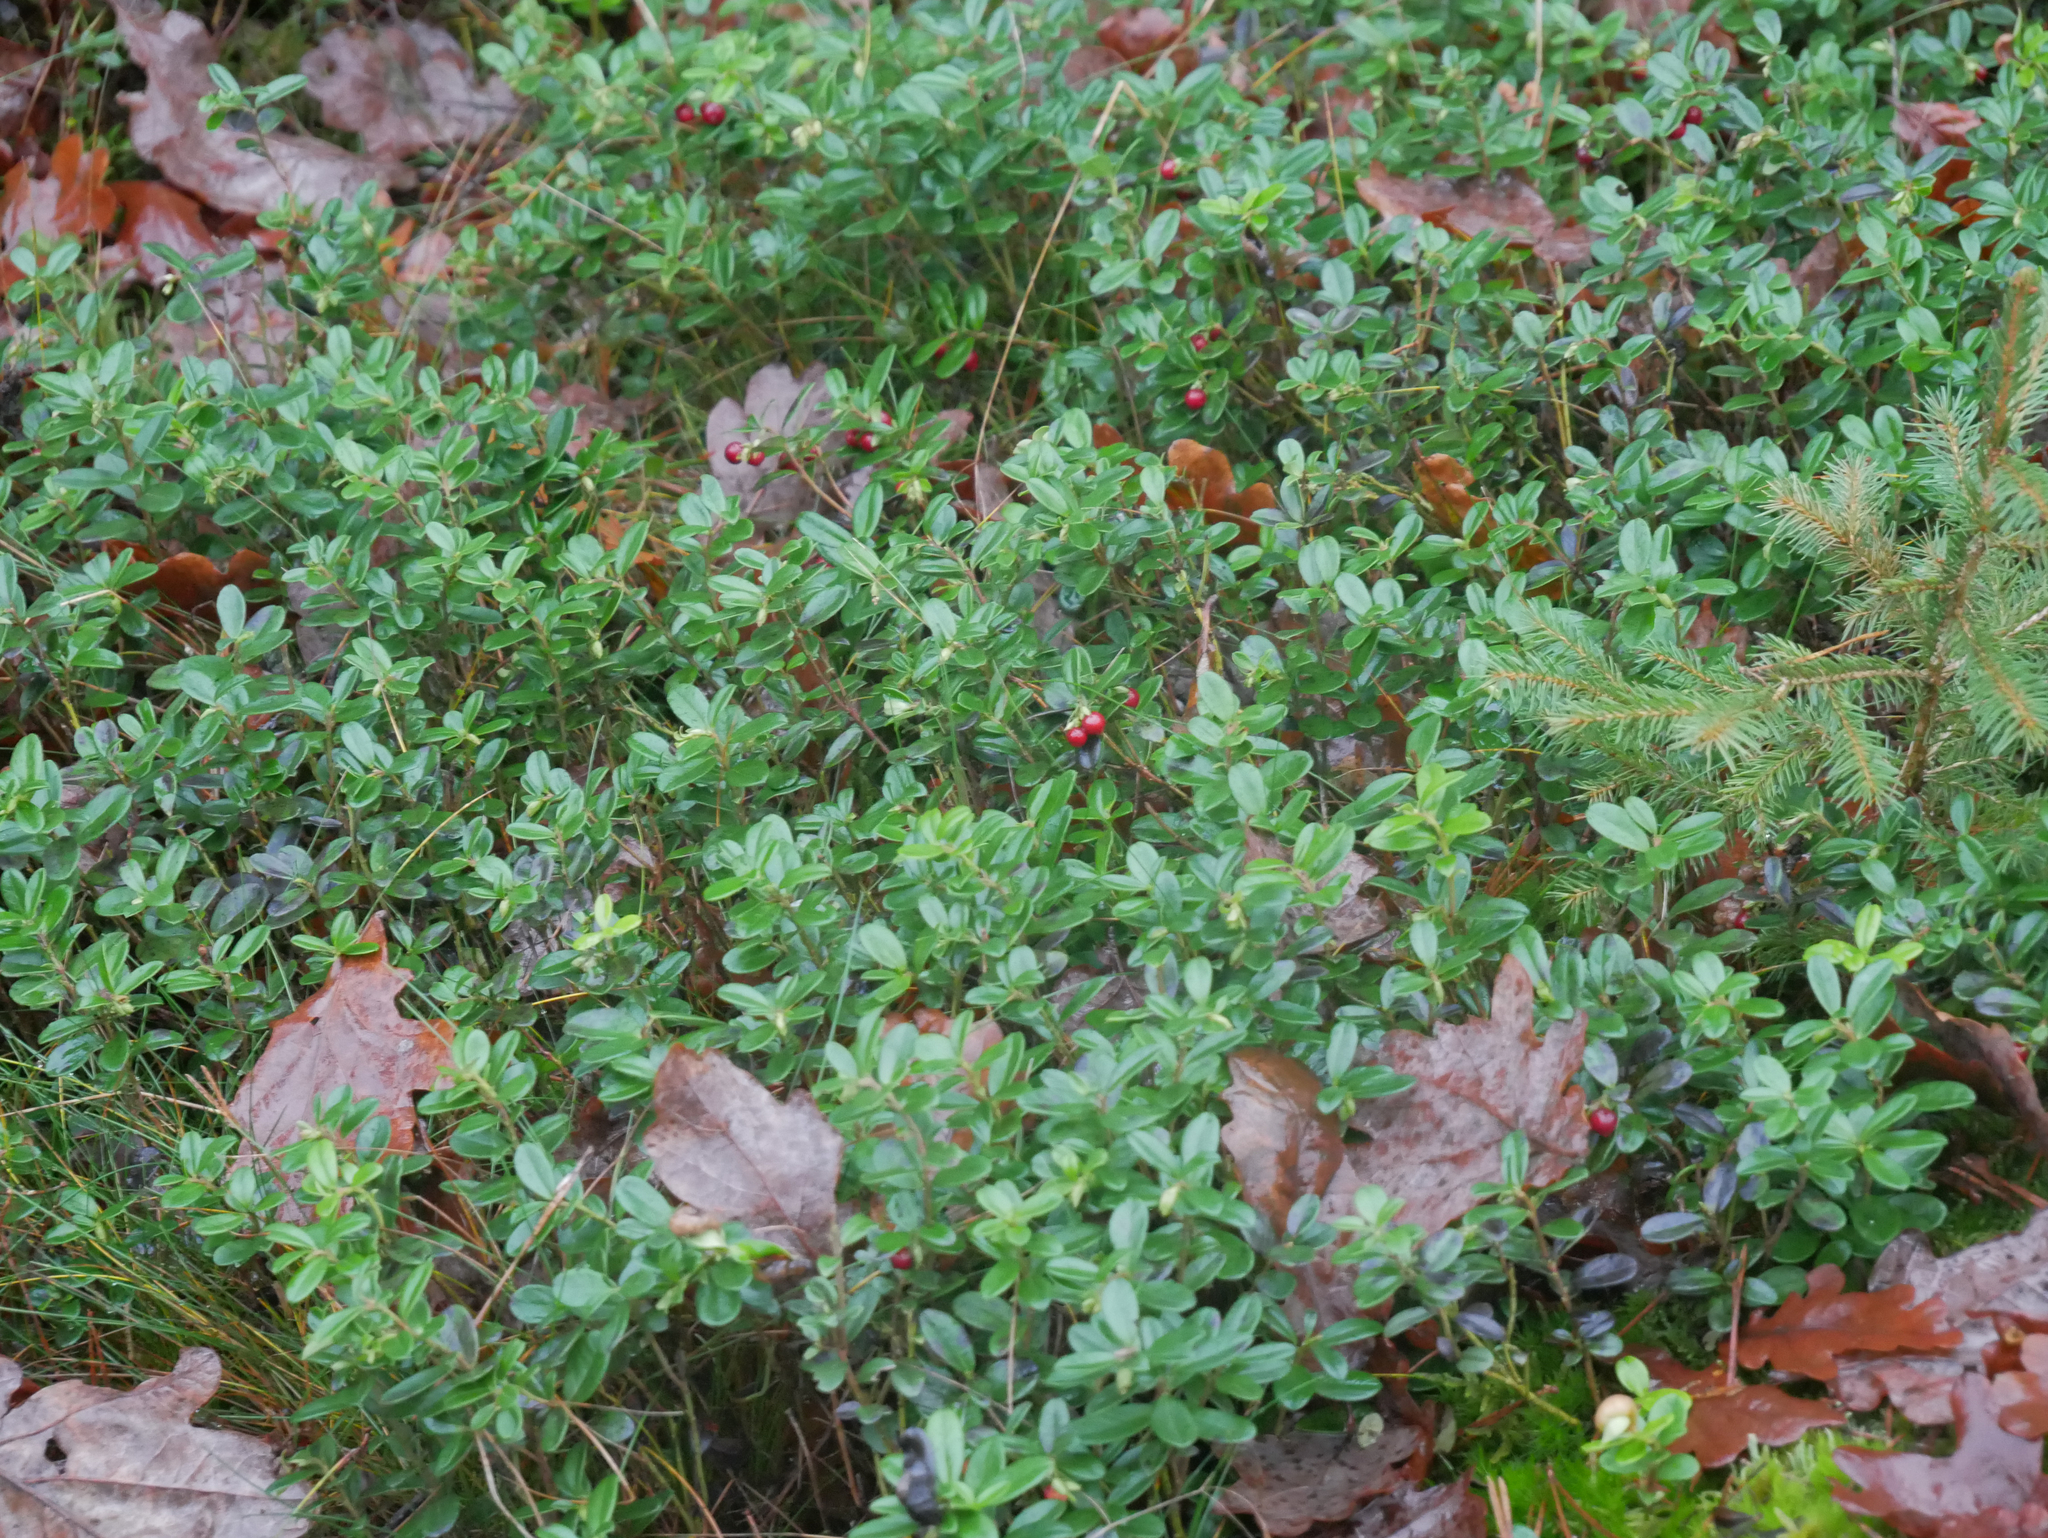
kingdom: Plantae
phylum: Tracheophyta
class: Magnoliopsida
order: Ericales
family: Ericaceae
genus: Vaccinium
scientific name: Vaccinium vitis-idaea
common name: Cowberry
